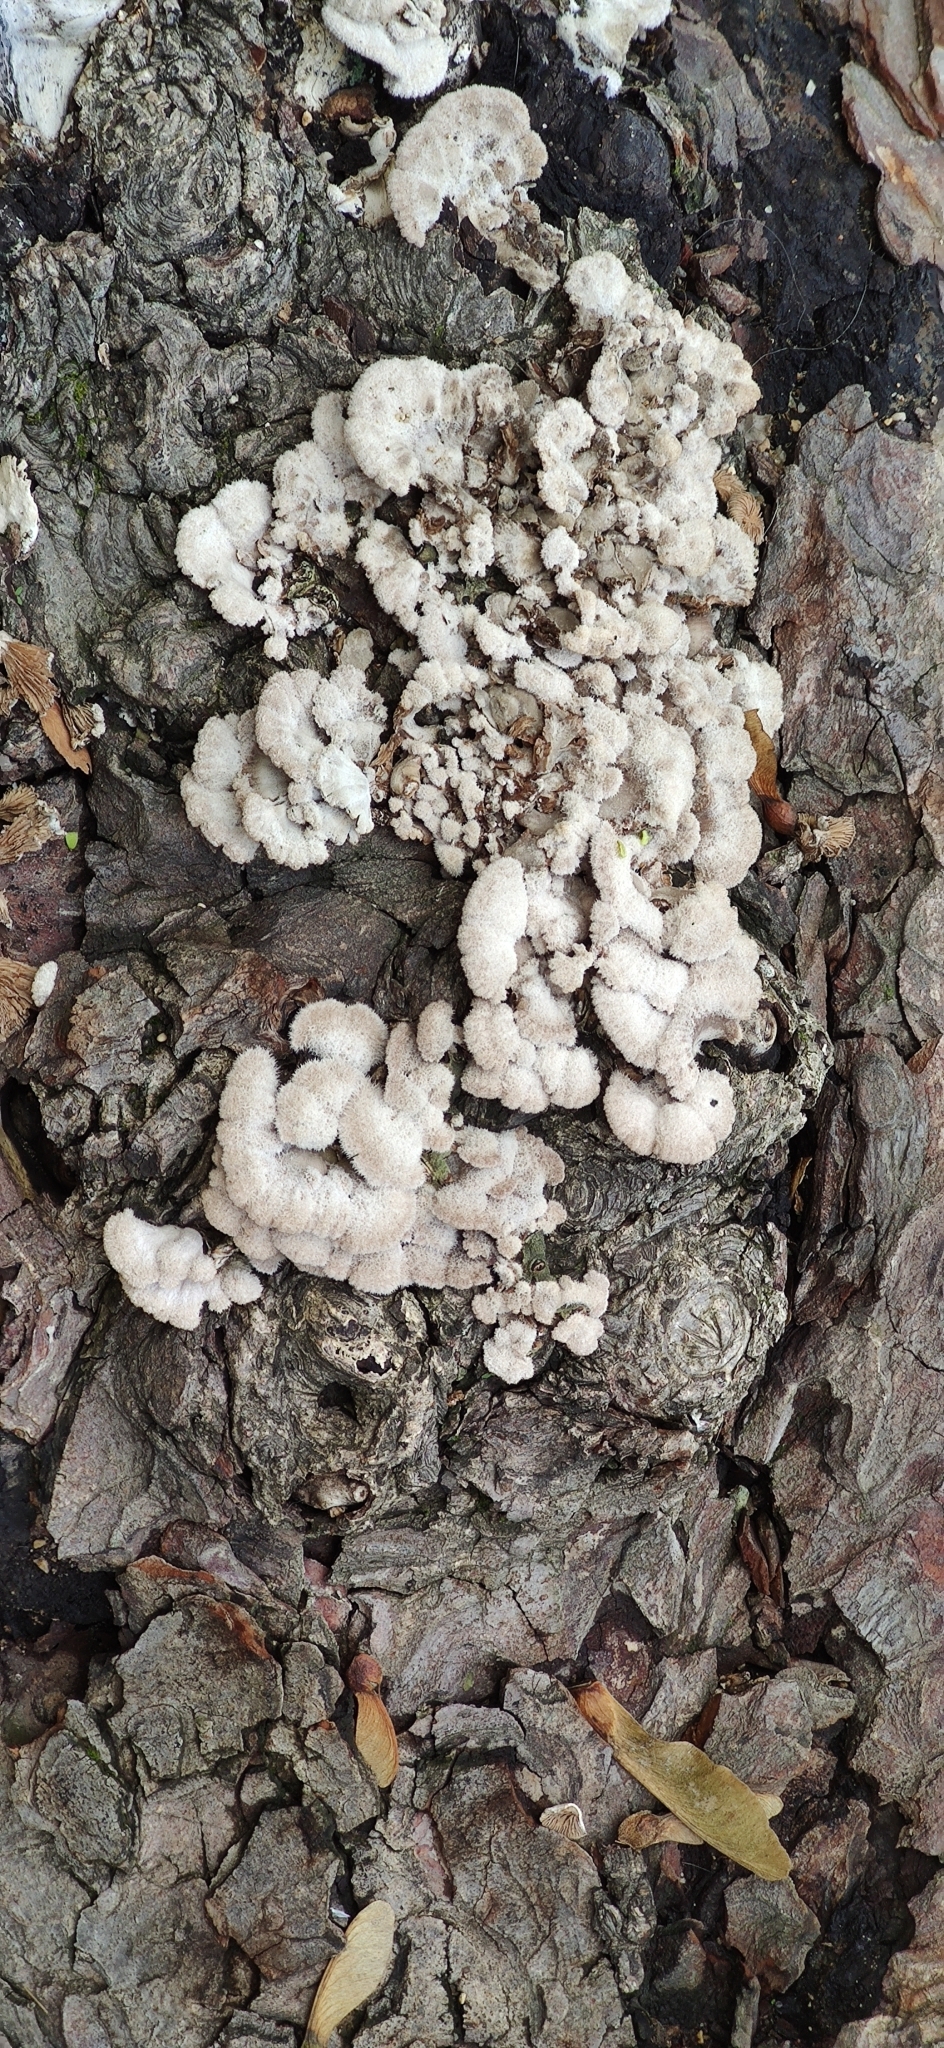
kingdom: Fungi
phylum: Basidiomycota
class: Agaricomycetes
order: Agaricales
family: Schizophyllaceae
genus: Schizophyllum
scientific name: Schizophyllum commune
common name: Common porecrust
